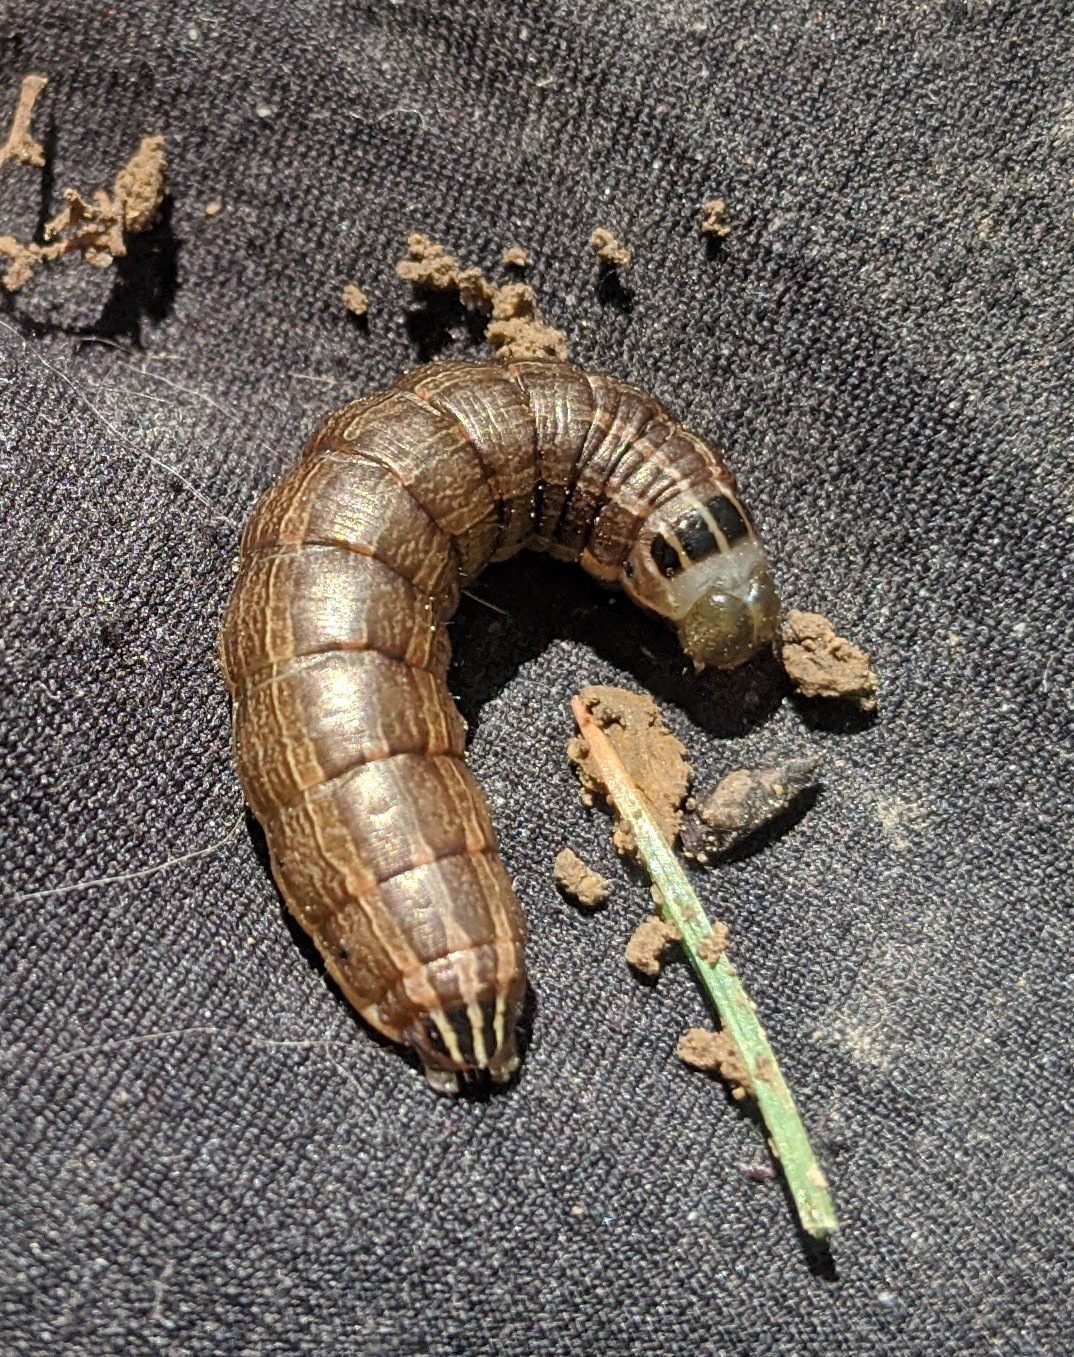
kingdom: Animalia
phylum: Arthropoda
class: Insecta
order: Lepidoptera
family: Noctuidae
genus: Nephelodes
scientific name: Nephelodes minians
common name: Bronzed cutworm
